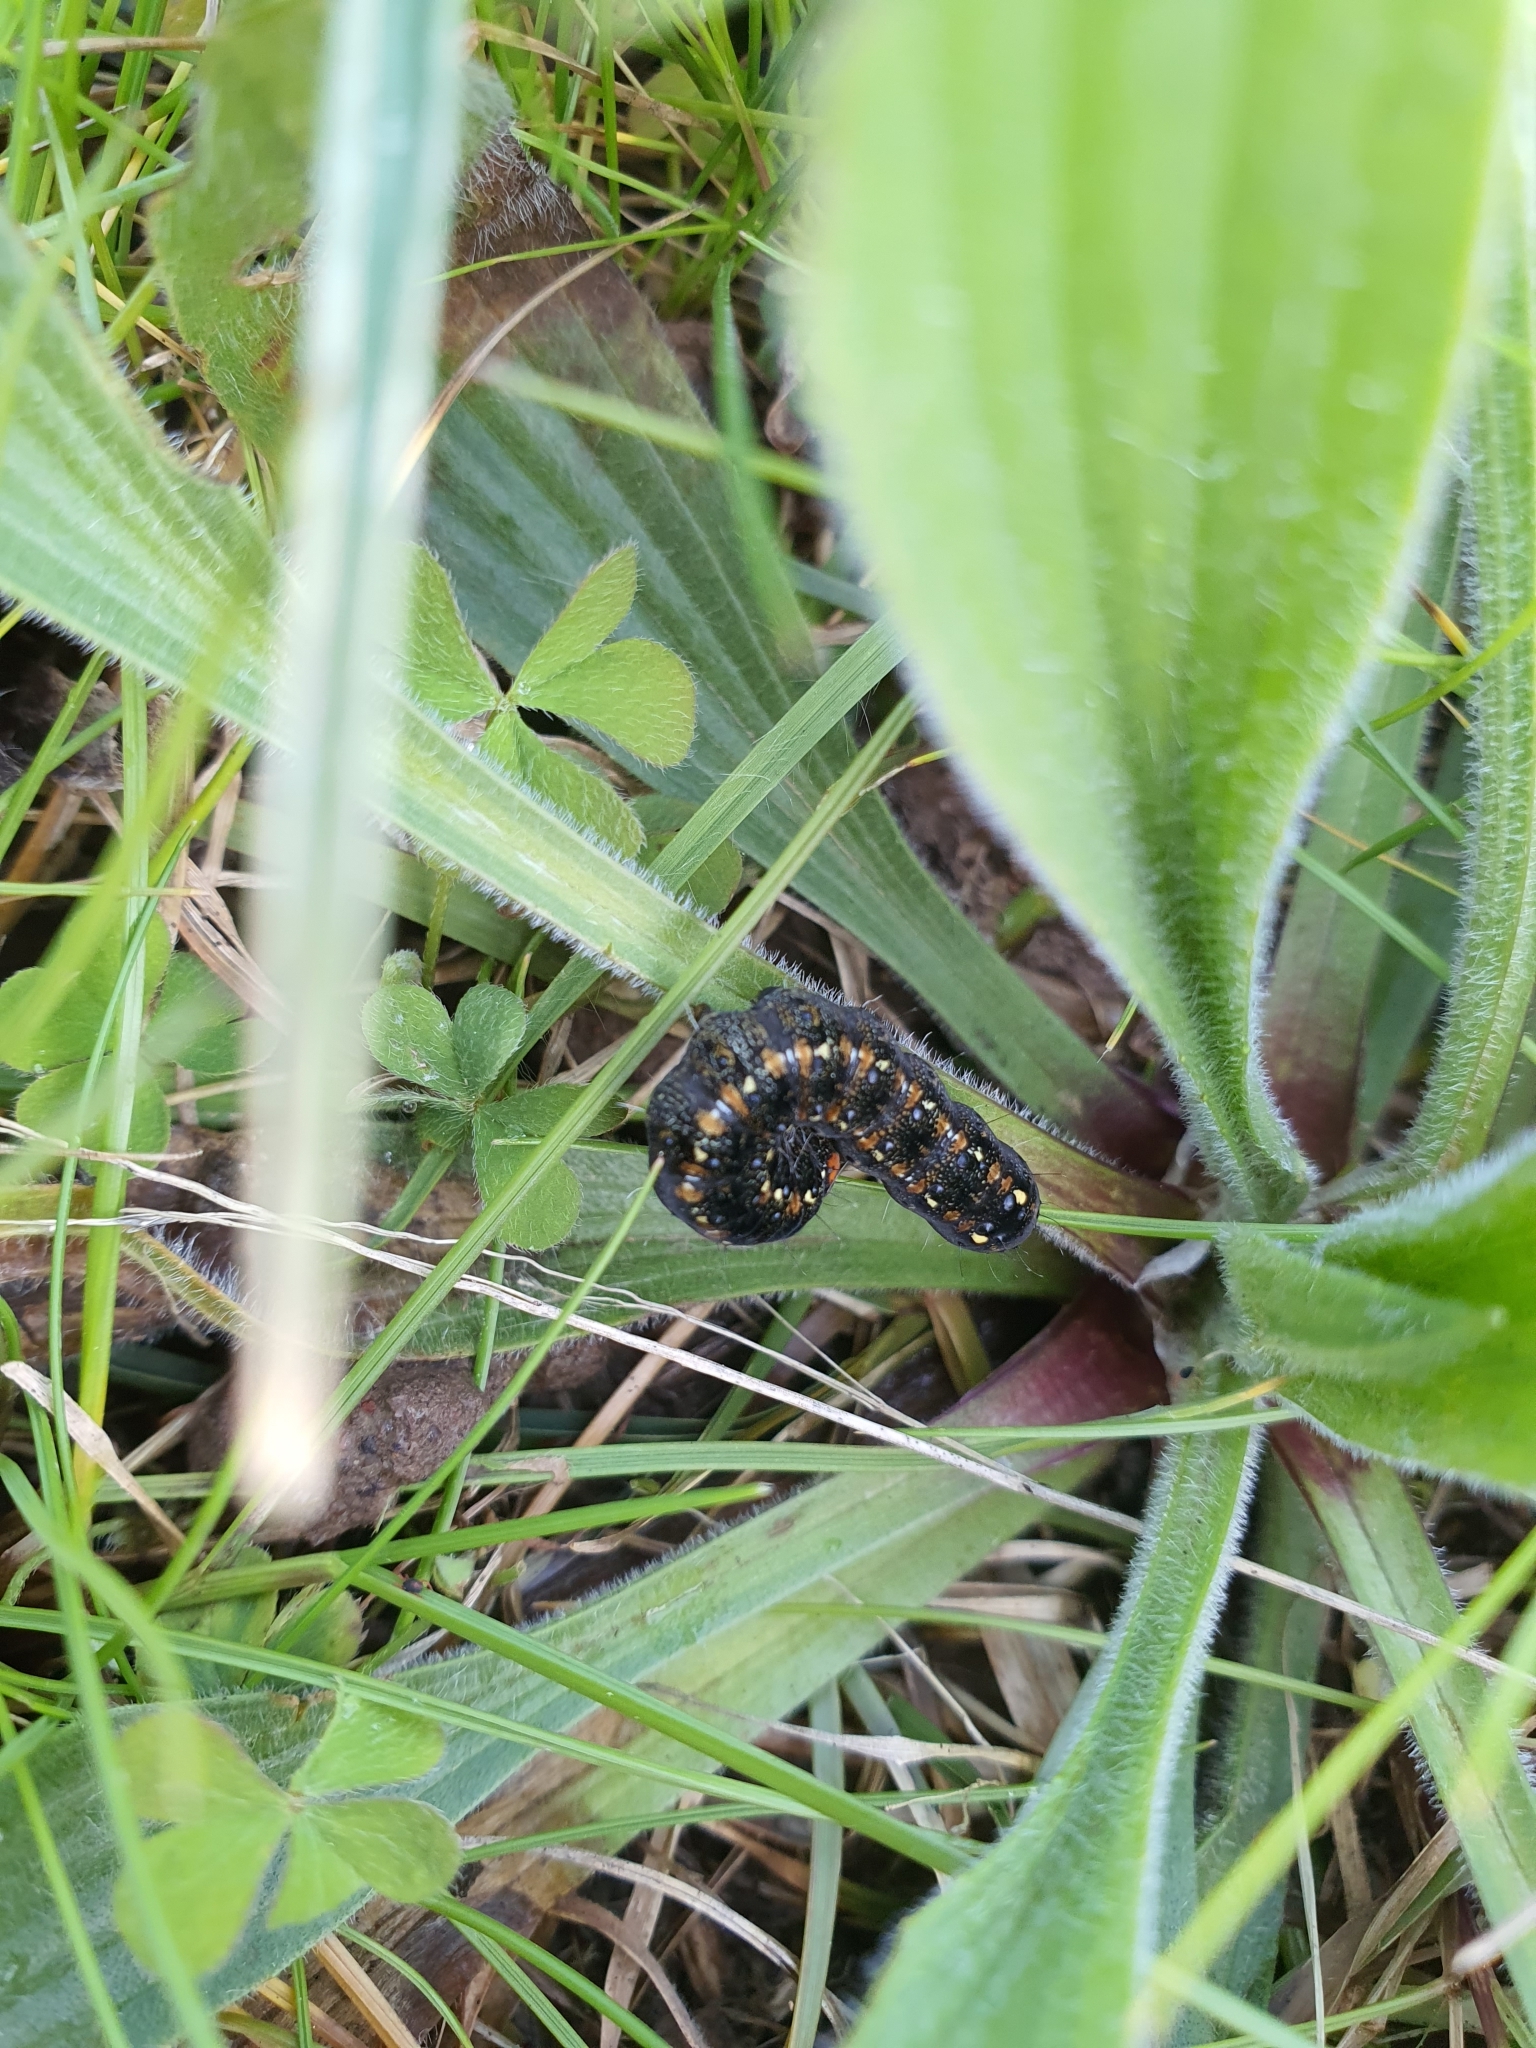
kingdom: Animalia
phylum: Arthropoda
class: Insecta
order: Lepidoptera
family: Noctuidae
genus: Apina
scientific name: Apina callisto
